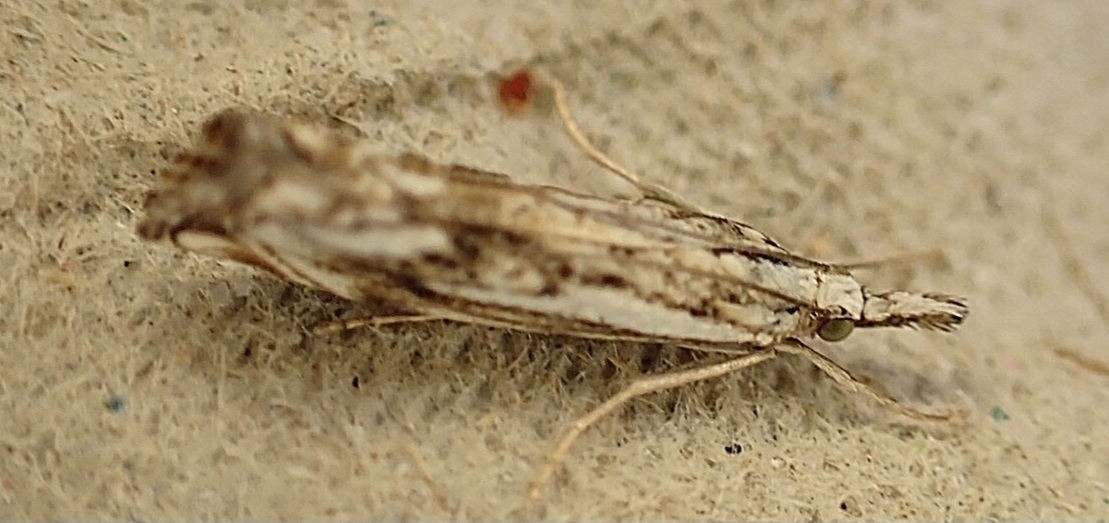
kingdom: Animalia
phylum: Arthropoda
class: Insecta
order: Lepidoptera
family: Crambidae
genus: Catoptria
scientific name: Catoptria falsella
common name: Chequered grass-veneer
